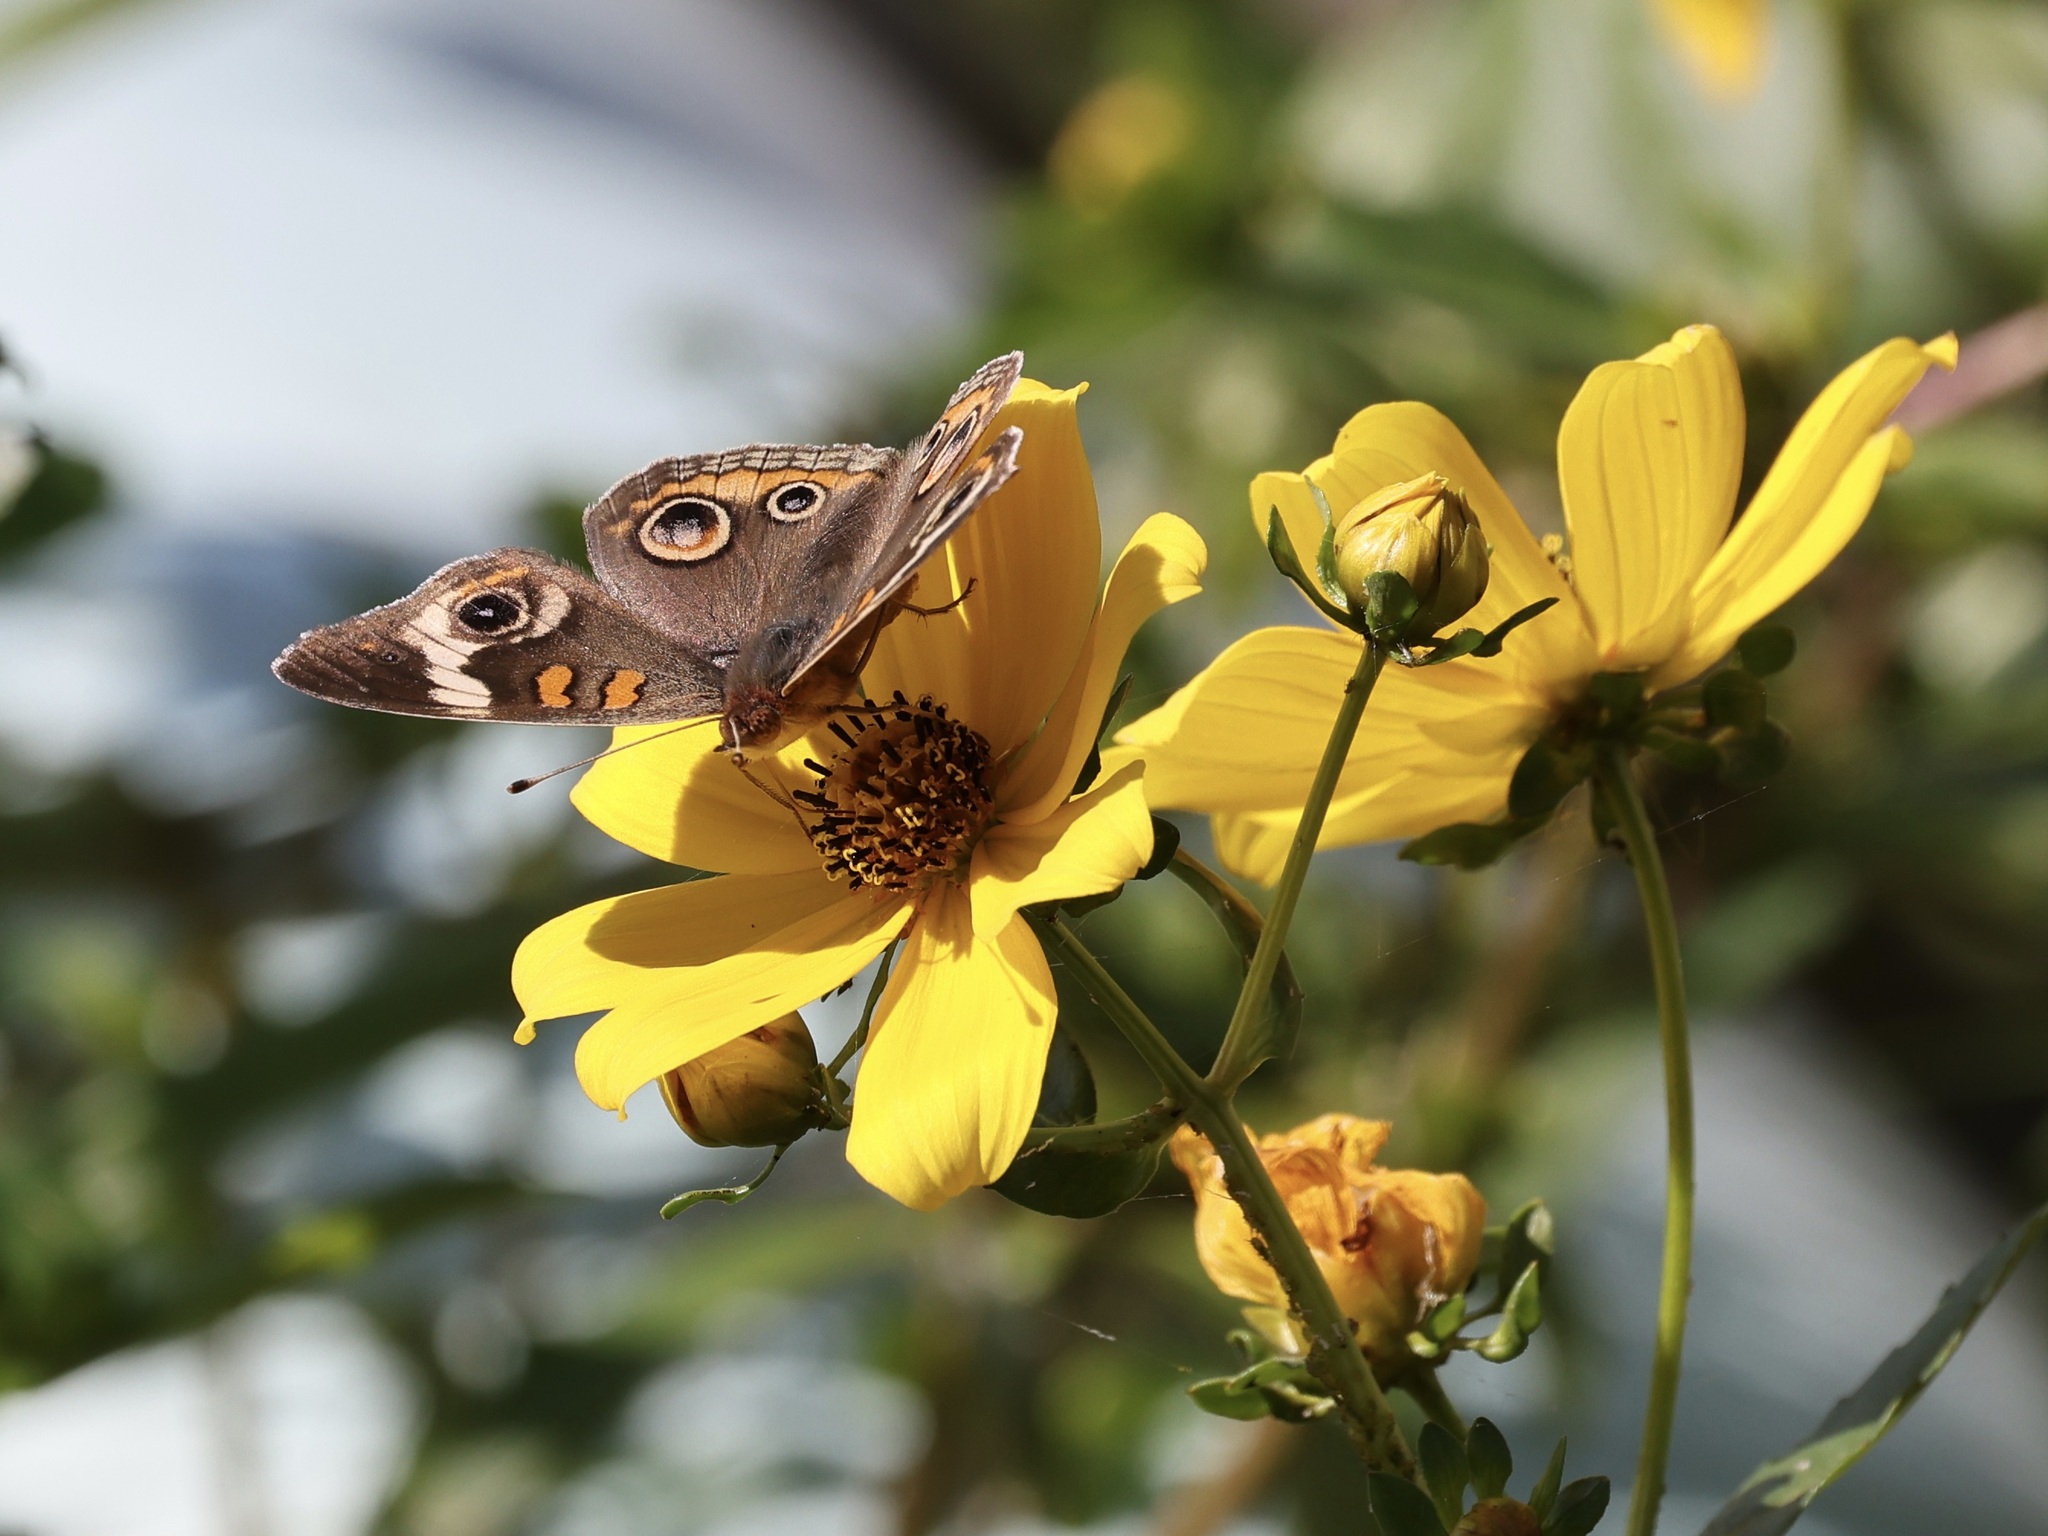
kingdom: Animalia
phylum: Arthropoda
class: Insecta
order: Lepidoptera
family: Nymphalidae
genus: Junonia
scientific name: Junonia coenia
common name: Common buckeye
